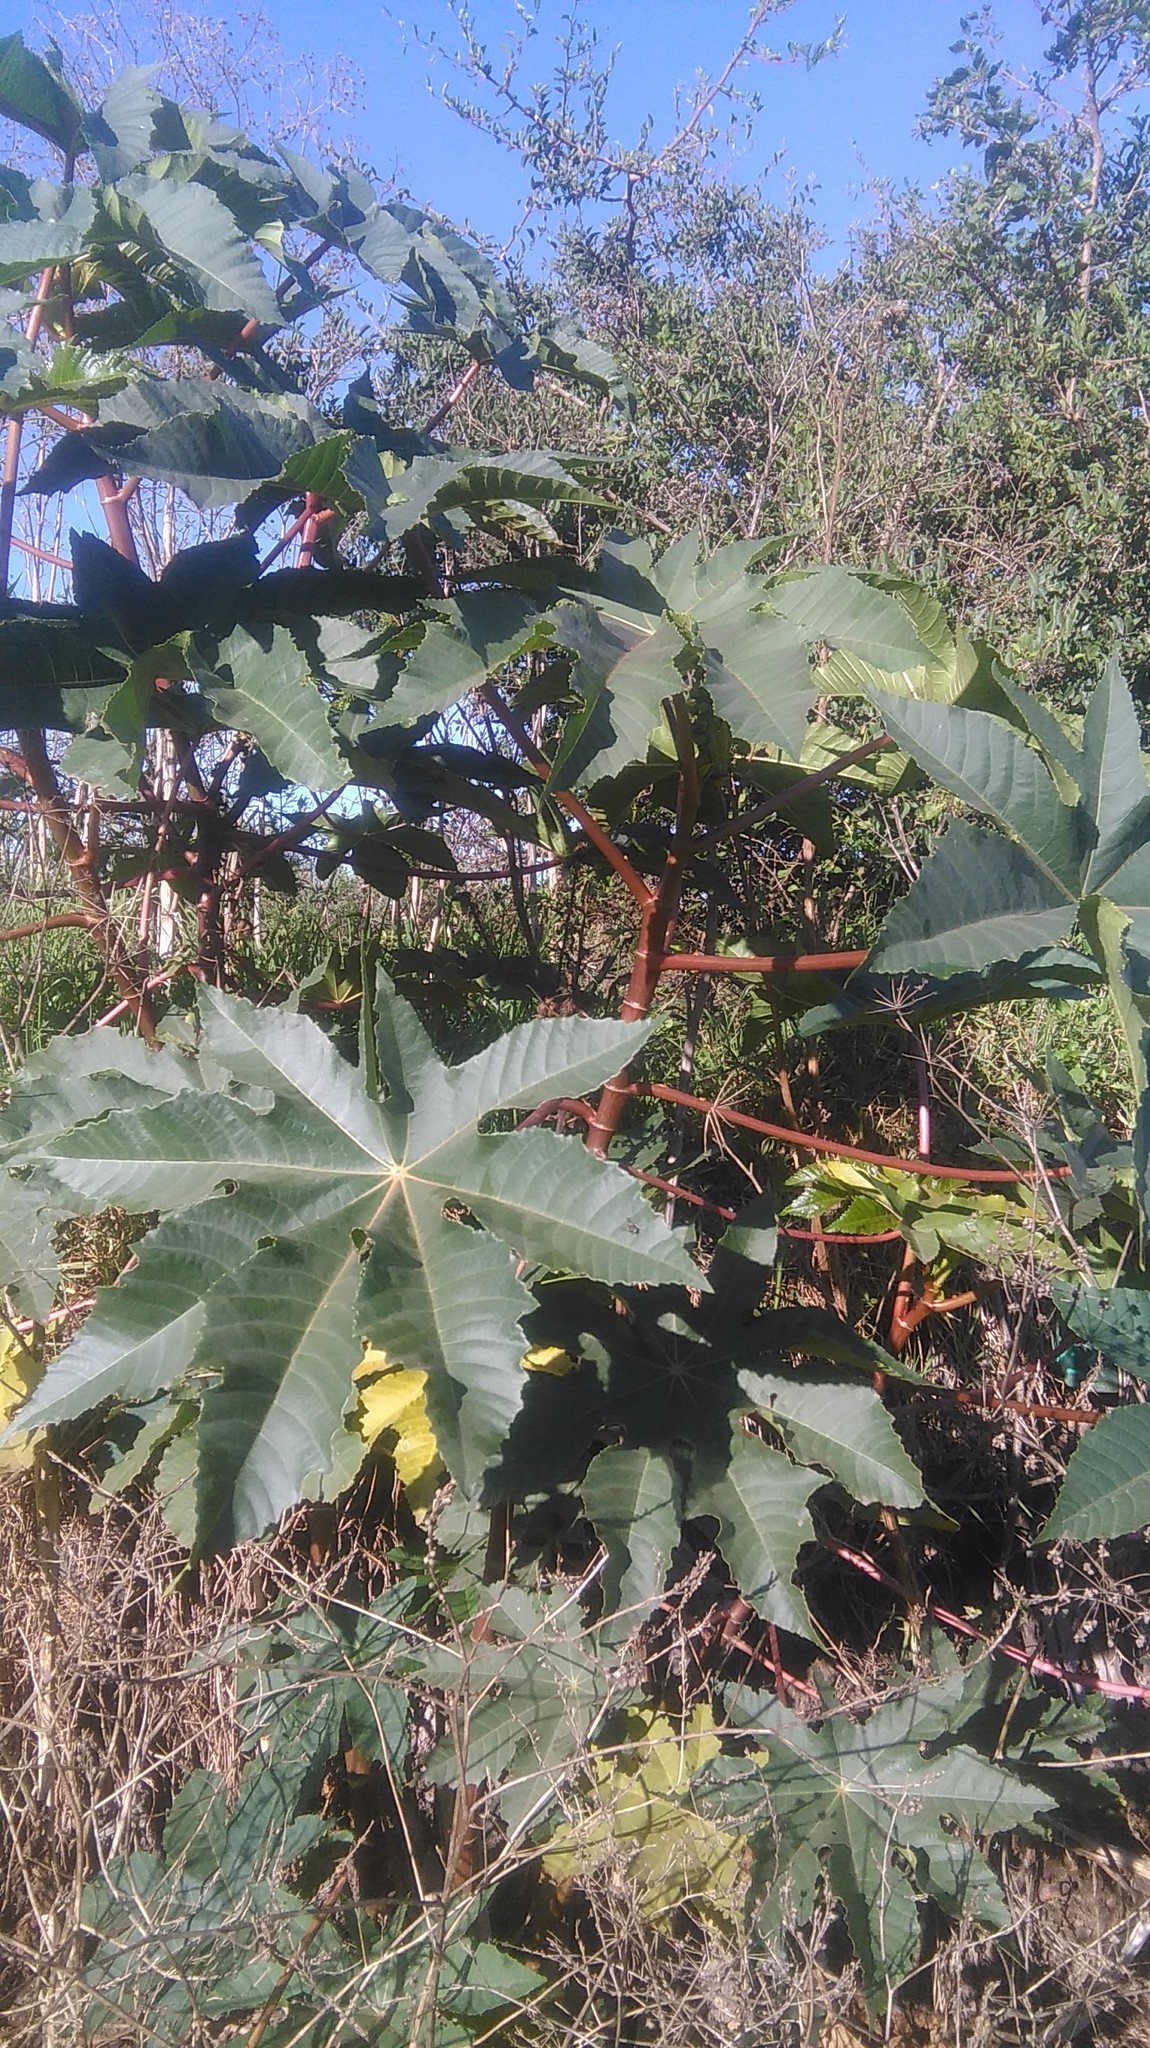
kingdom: Plantae
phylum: Tracheophyta
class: Magnoliopsida
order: Malpighiales
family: Euphorbiaceae
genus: Ricinus
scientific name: Ricinus communis
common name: Castor-oil-plant
